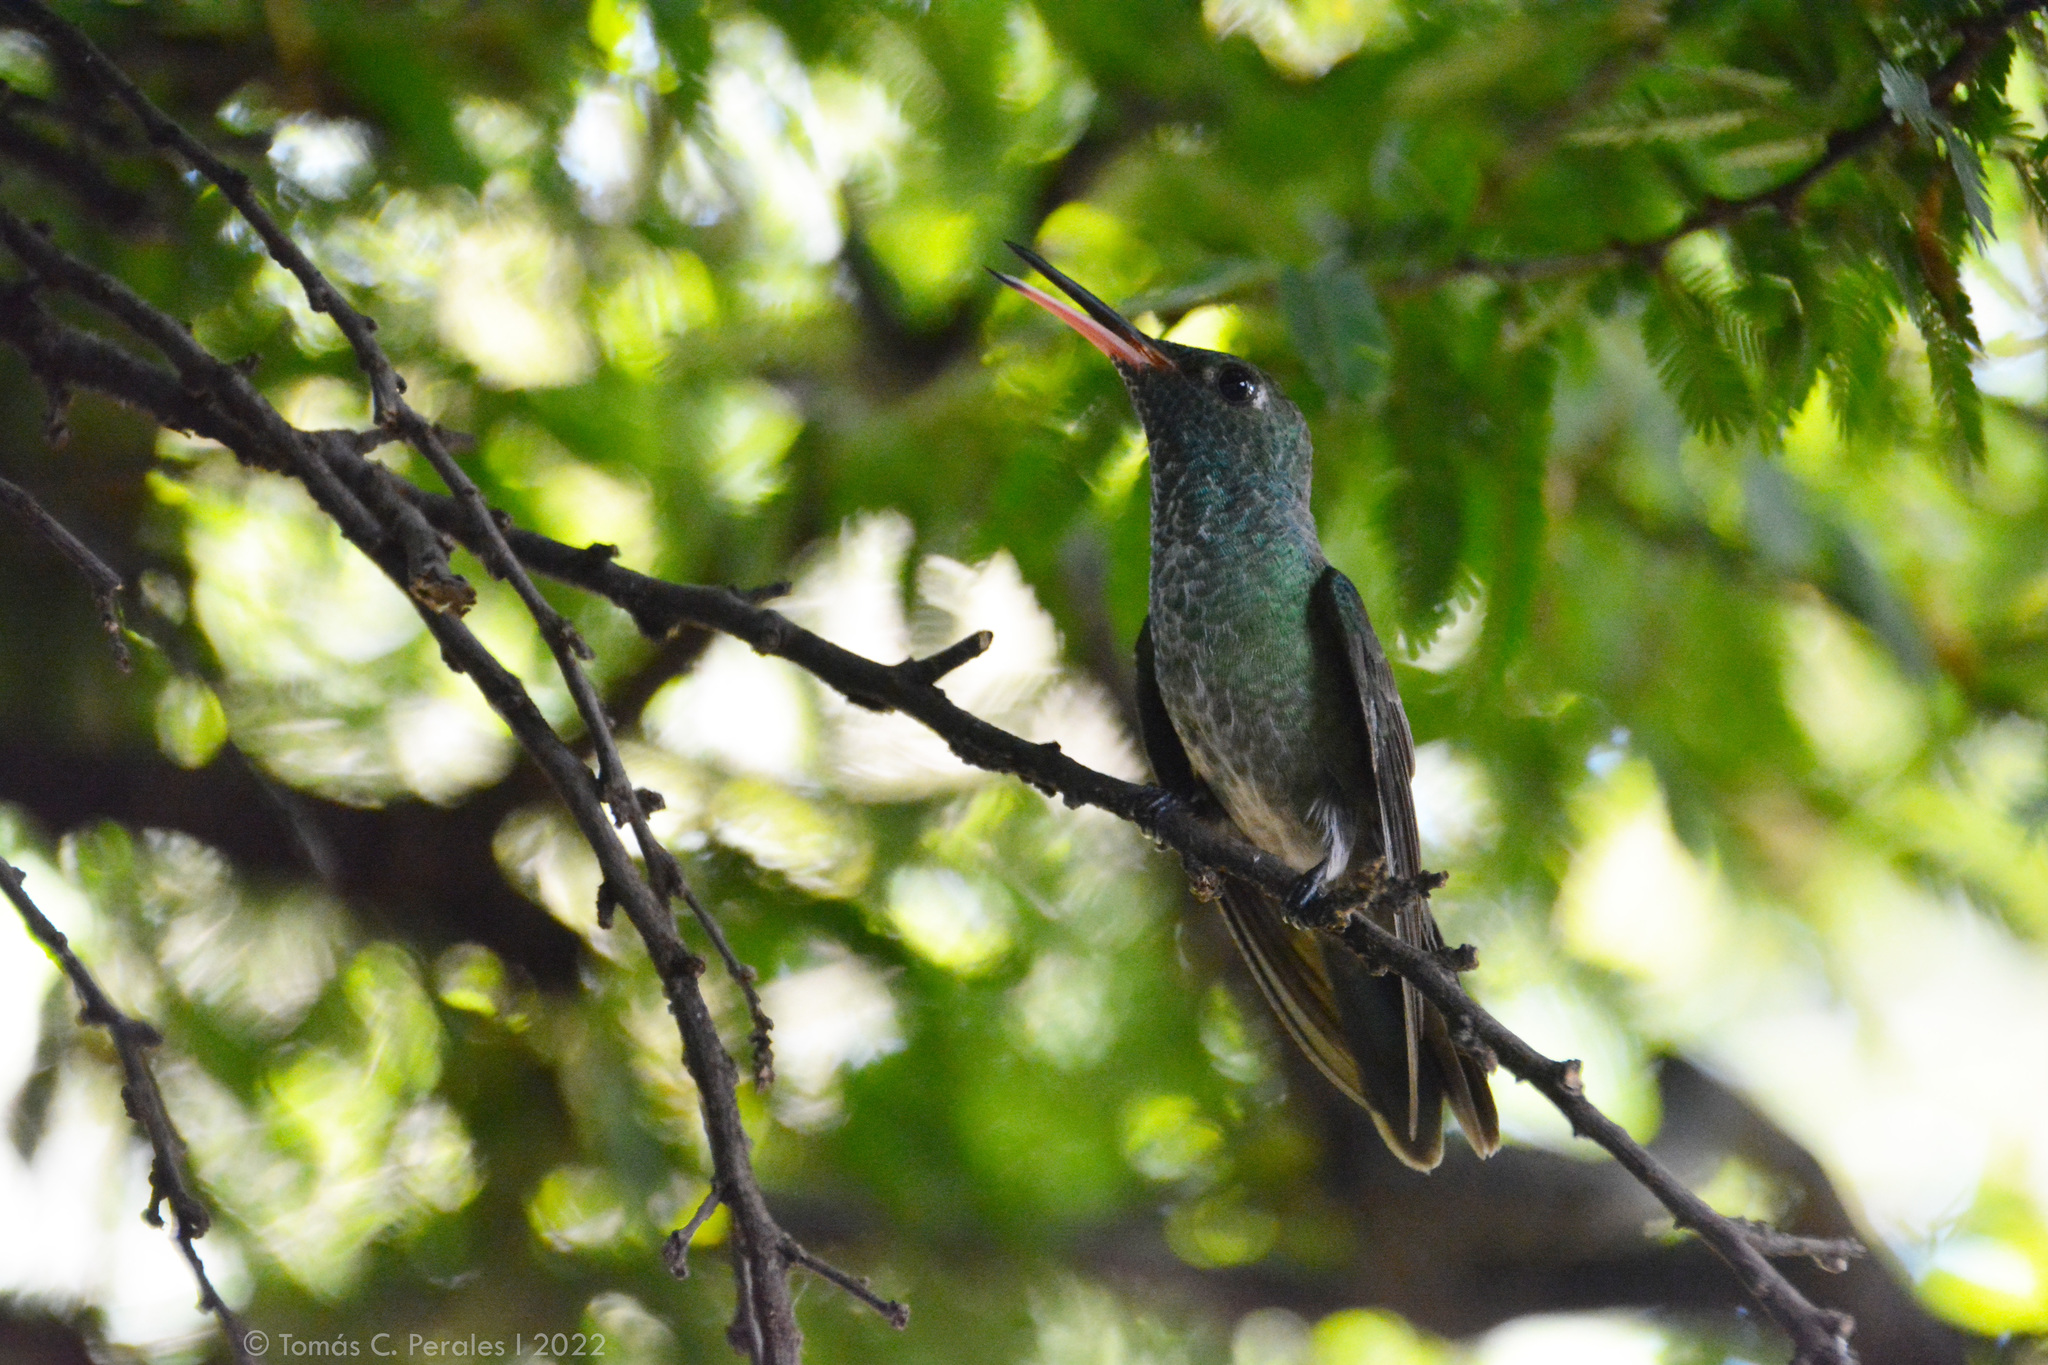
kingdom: Animalia
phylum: Chordata
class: Aves
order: Apodiformes
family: Trochilidae
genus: Hylocharis
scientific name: Hylocharis chrysura
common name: Gilded sapphire
